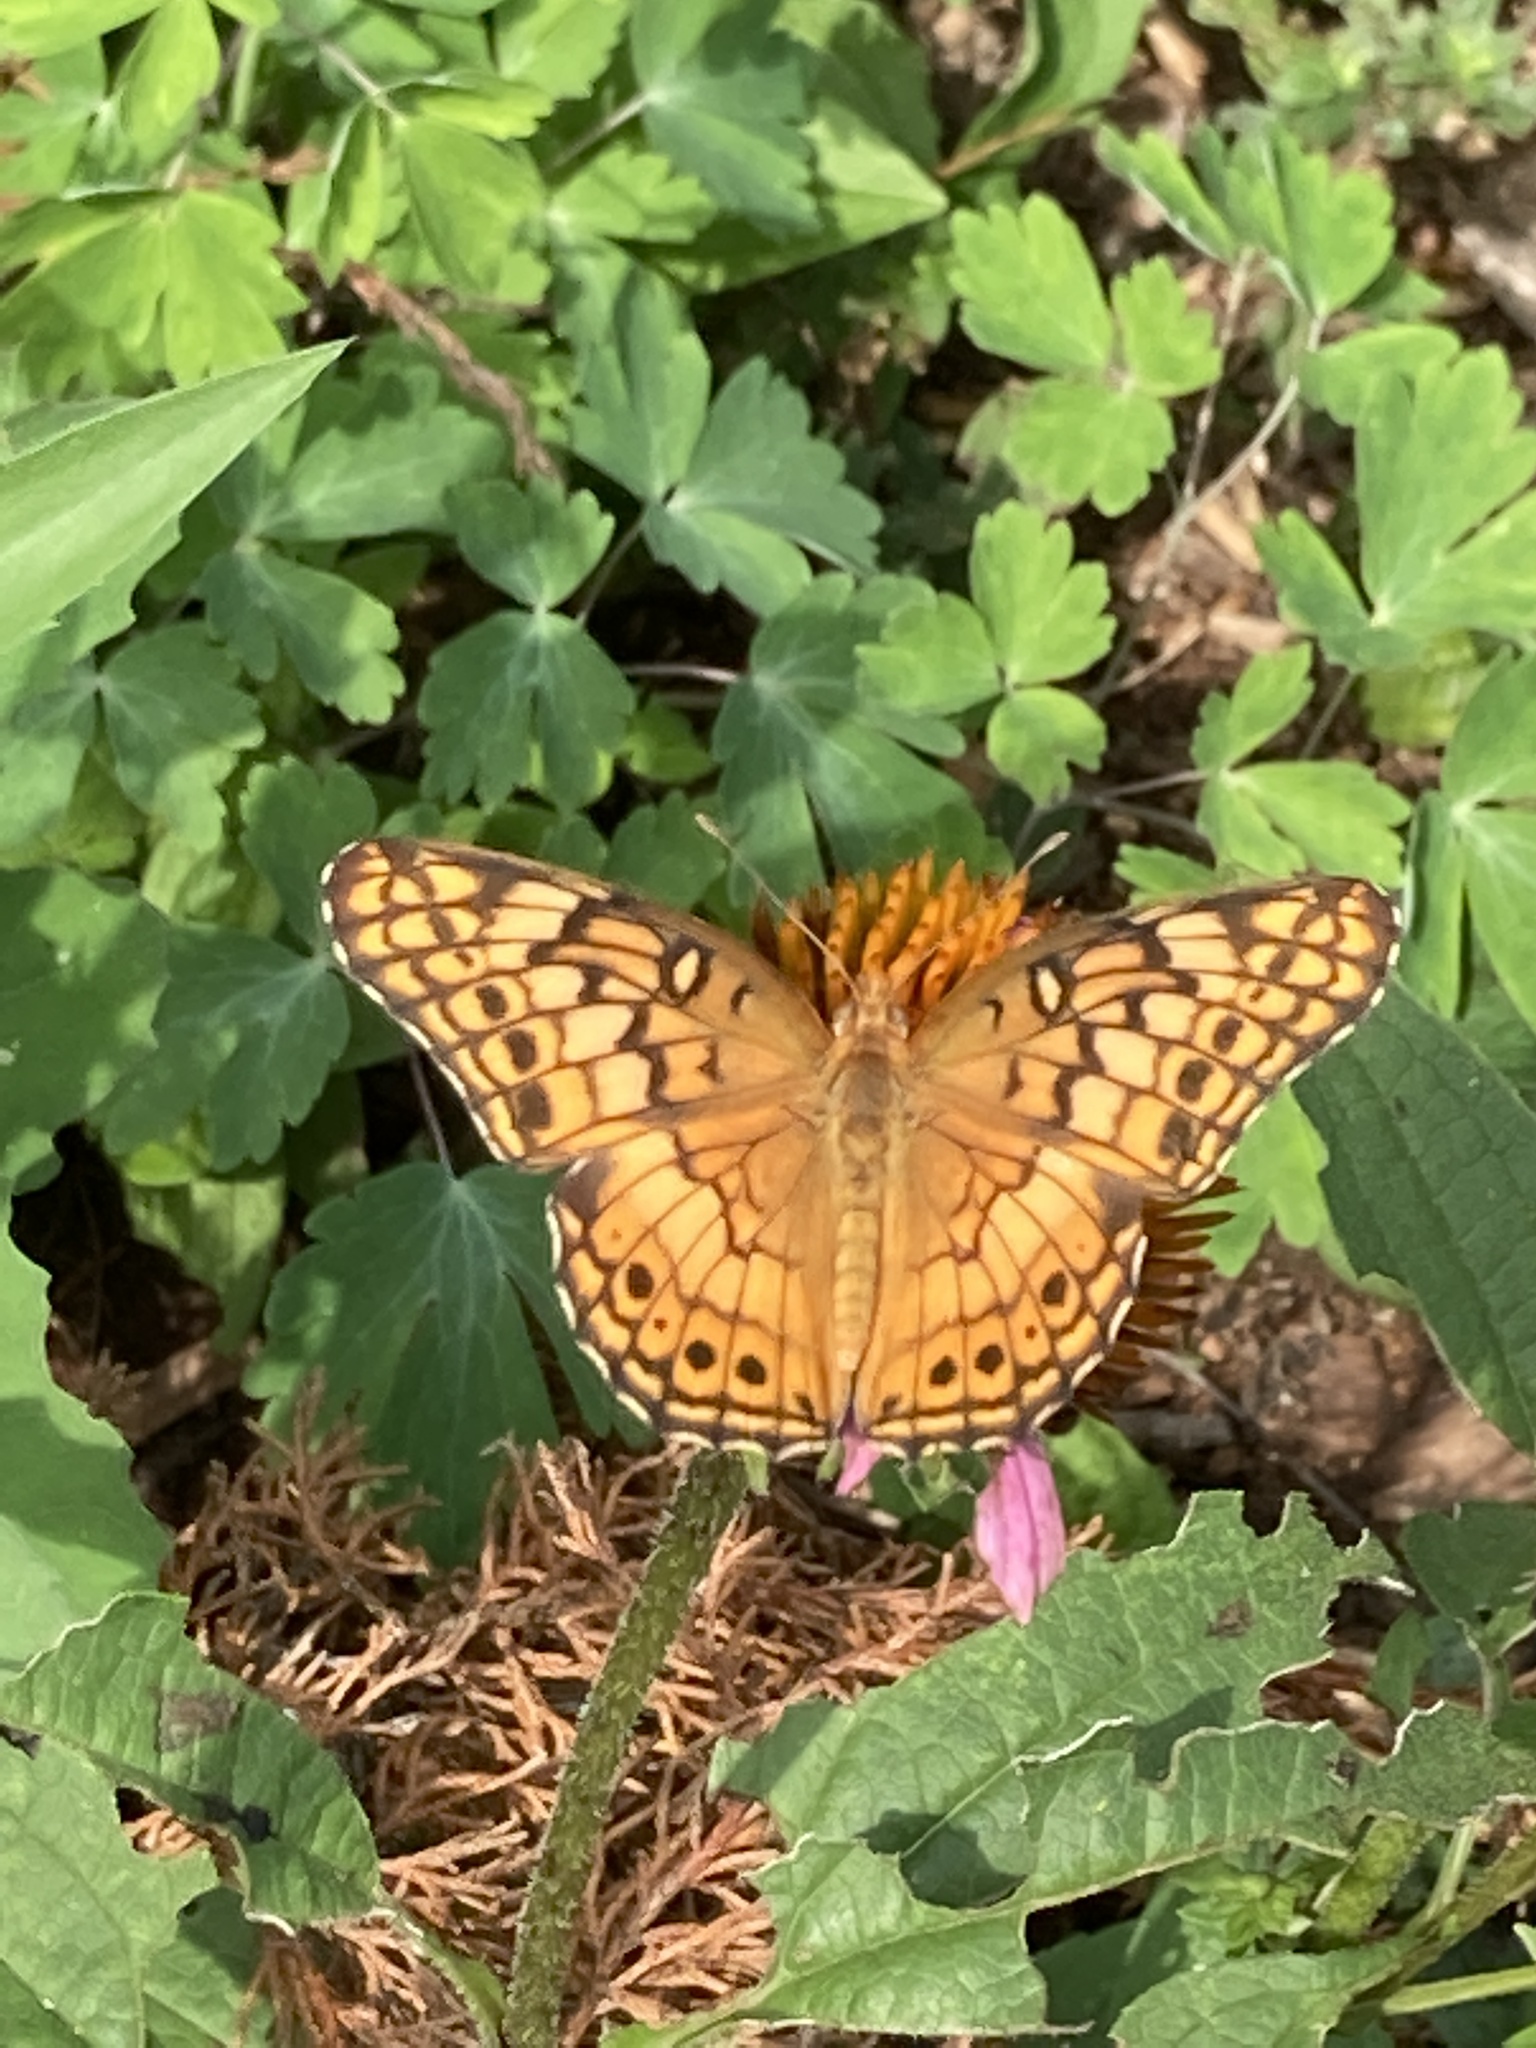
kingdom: Animalia
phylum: Arthropoda
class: Insecta
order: Lepidoptera
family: Nymphalidae
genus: Euptoieta
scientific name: Euptoieta claudia
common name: Variegated fritillary
